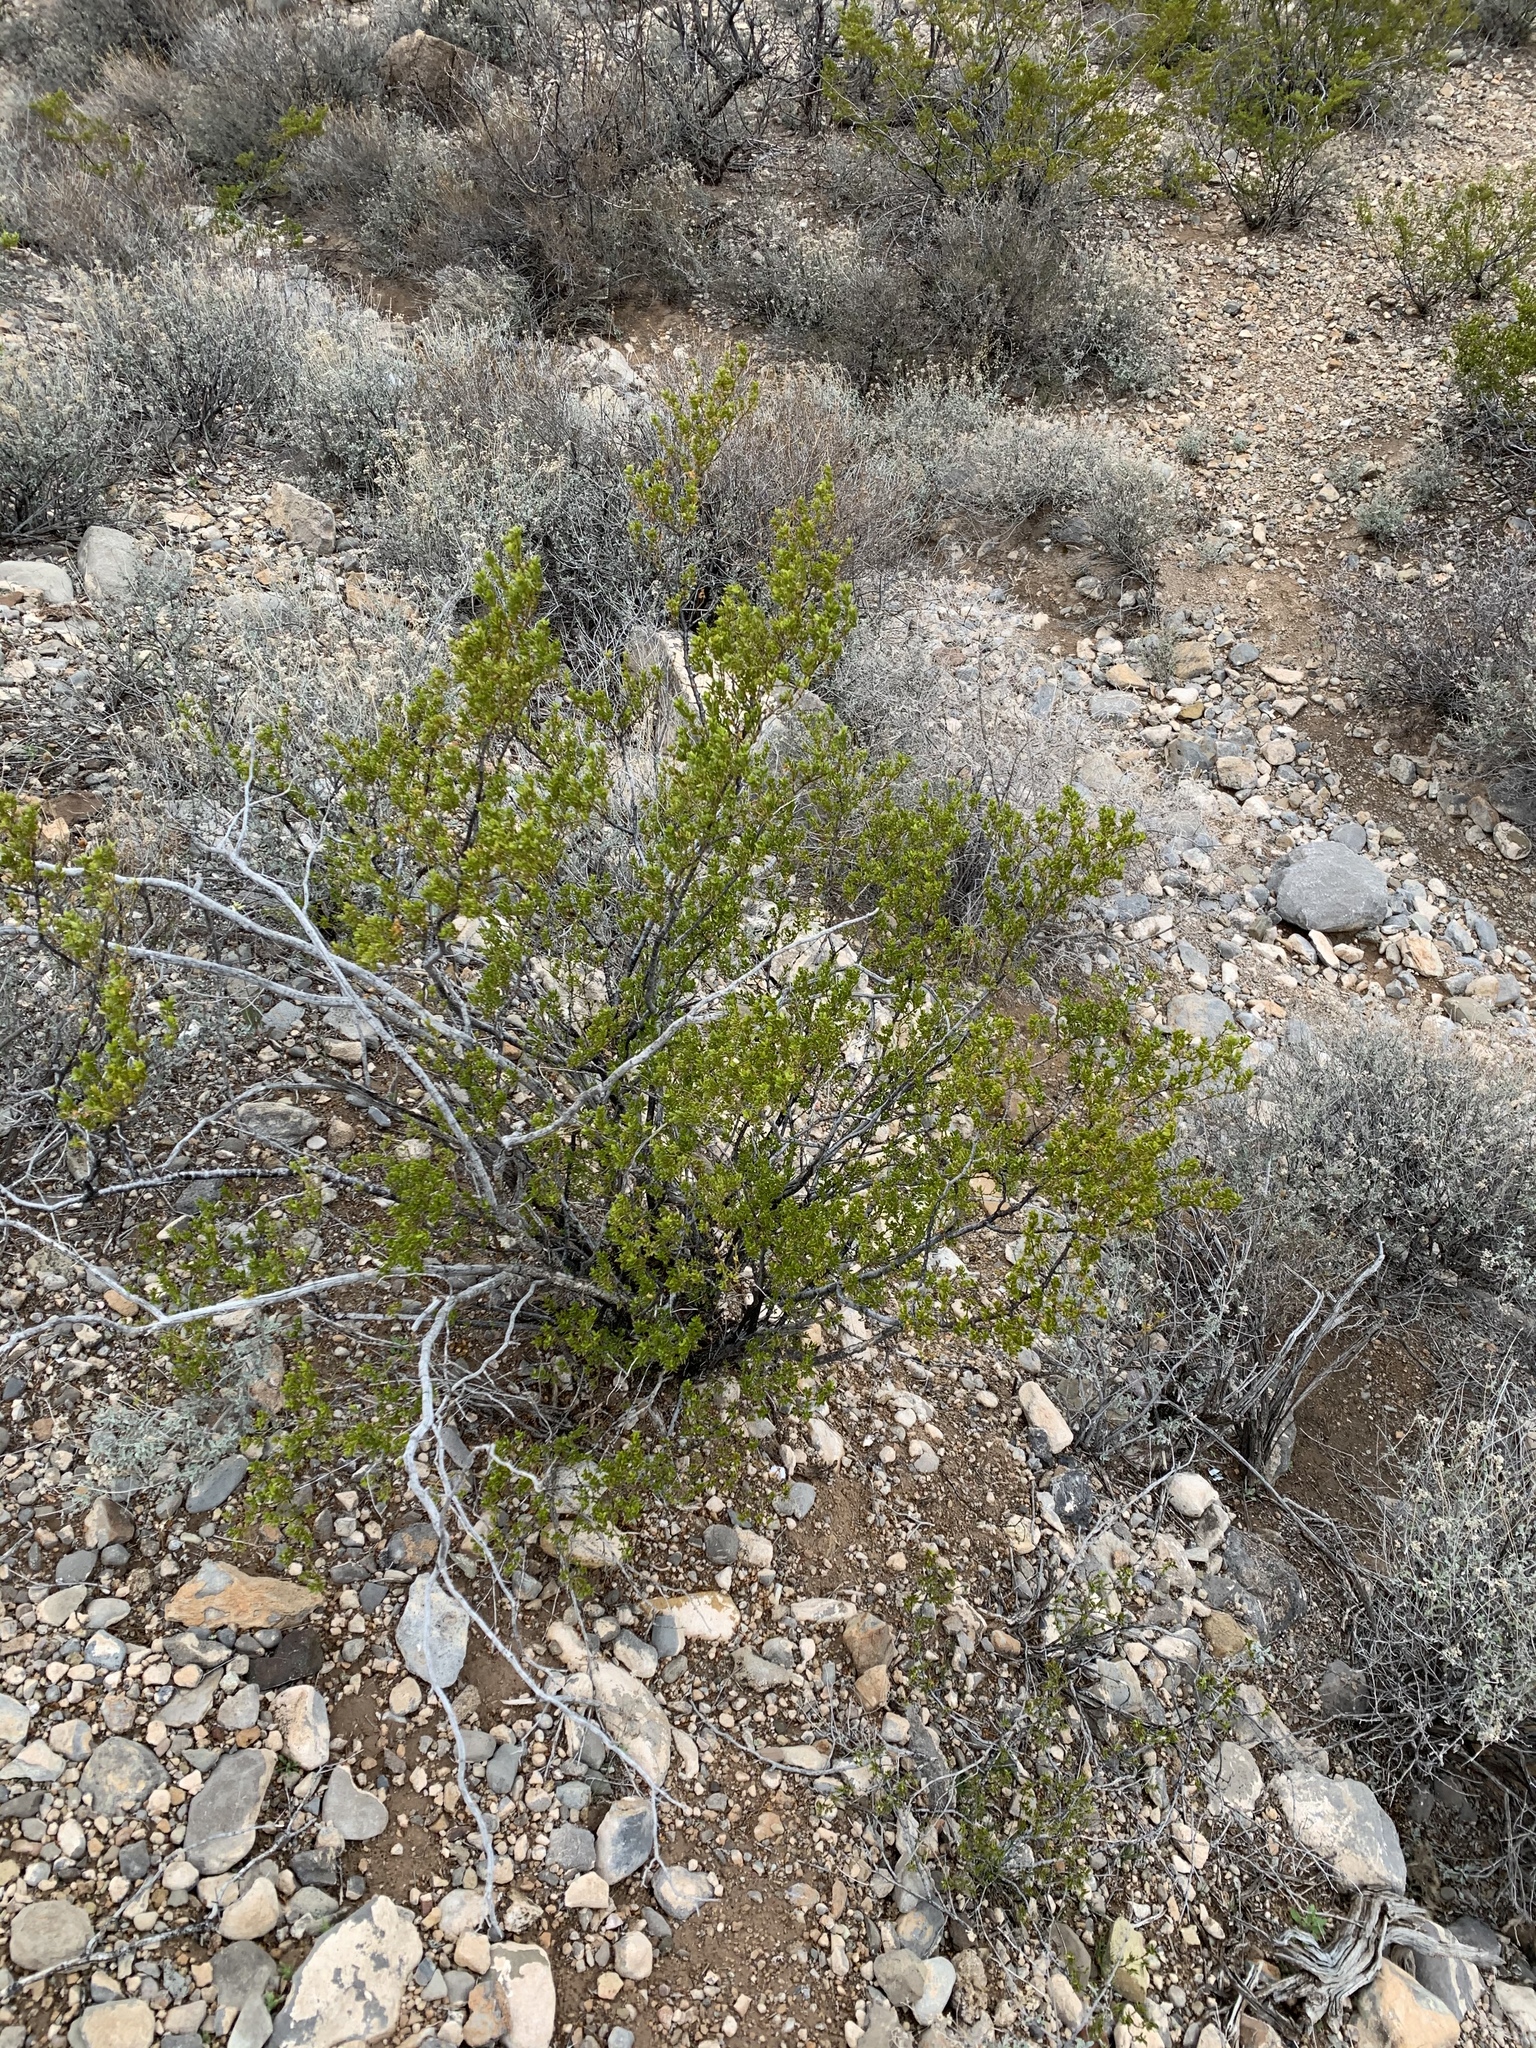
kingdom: Plantae
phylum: Tracheophyta
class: Magnoliopsida
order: Zygophyllales
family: Zygophyllaceae
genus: Larrea
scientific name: Larrea tridentata
